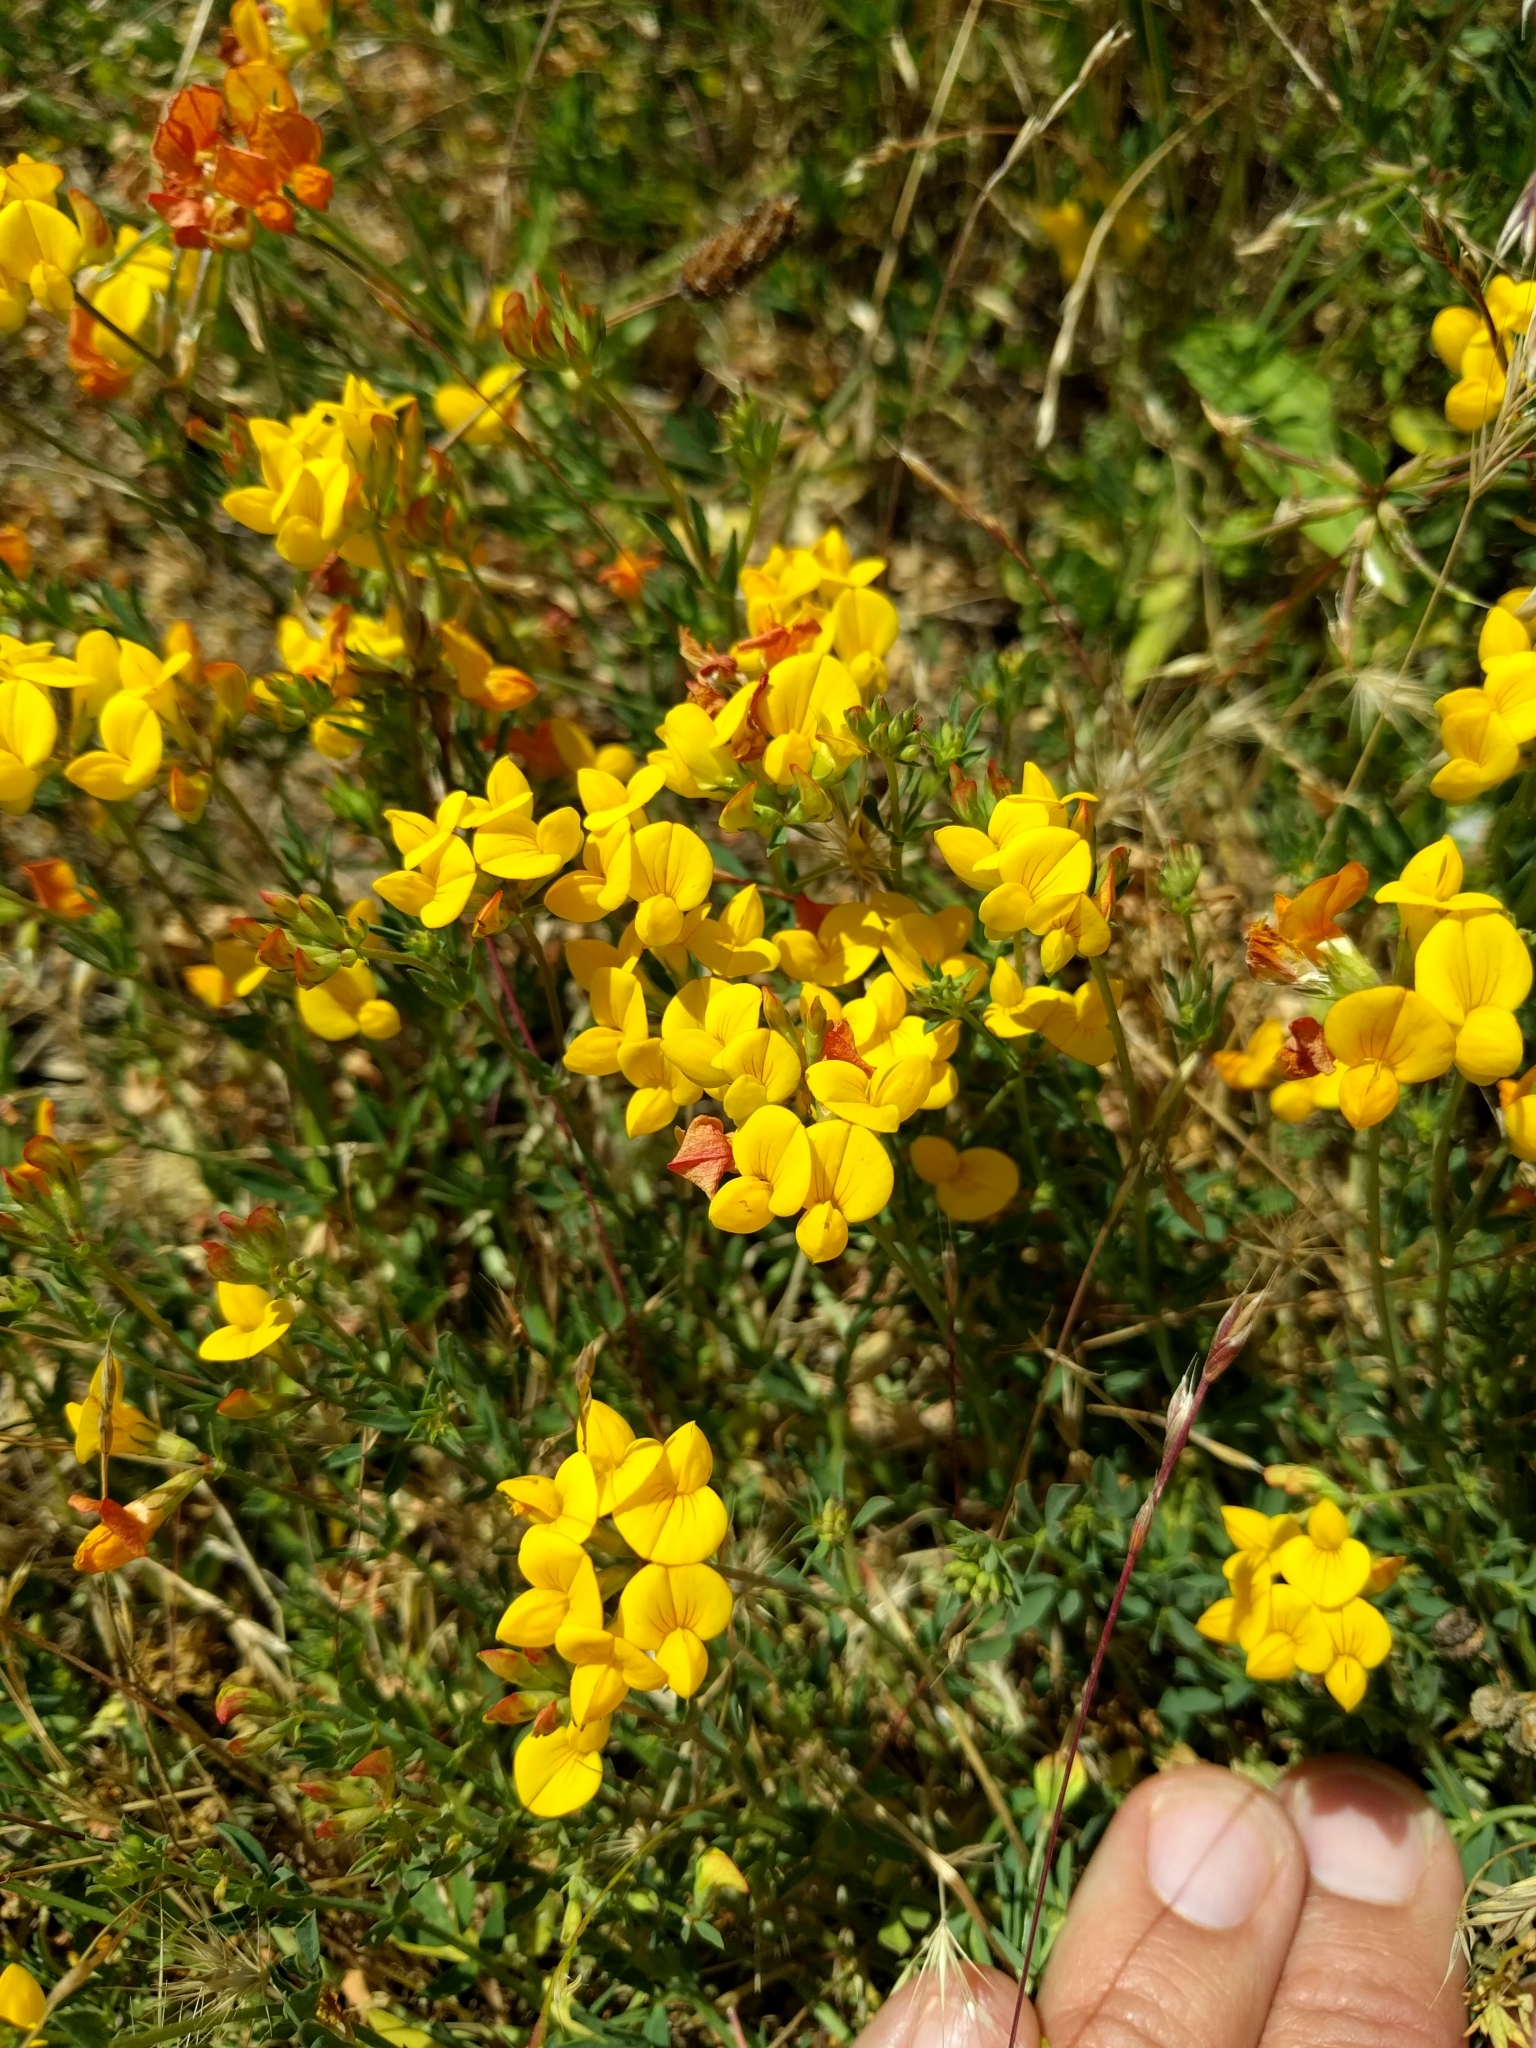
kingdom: Plantae
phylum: Tracheophyta
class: Magnoliopsida
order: Fabales
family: Fabaceae
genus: Lotus
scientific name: Lotus corniculatus
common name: Common bird's-foot-trefoil
